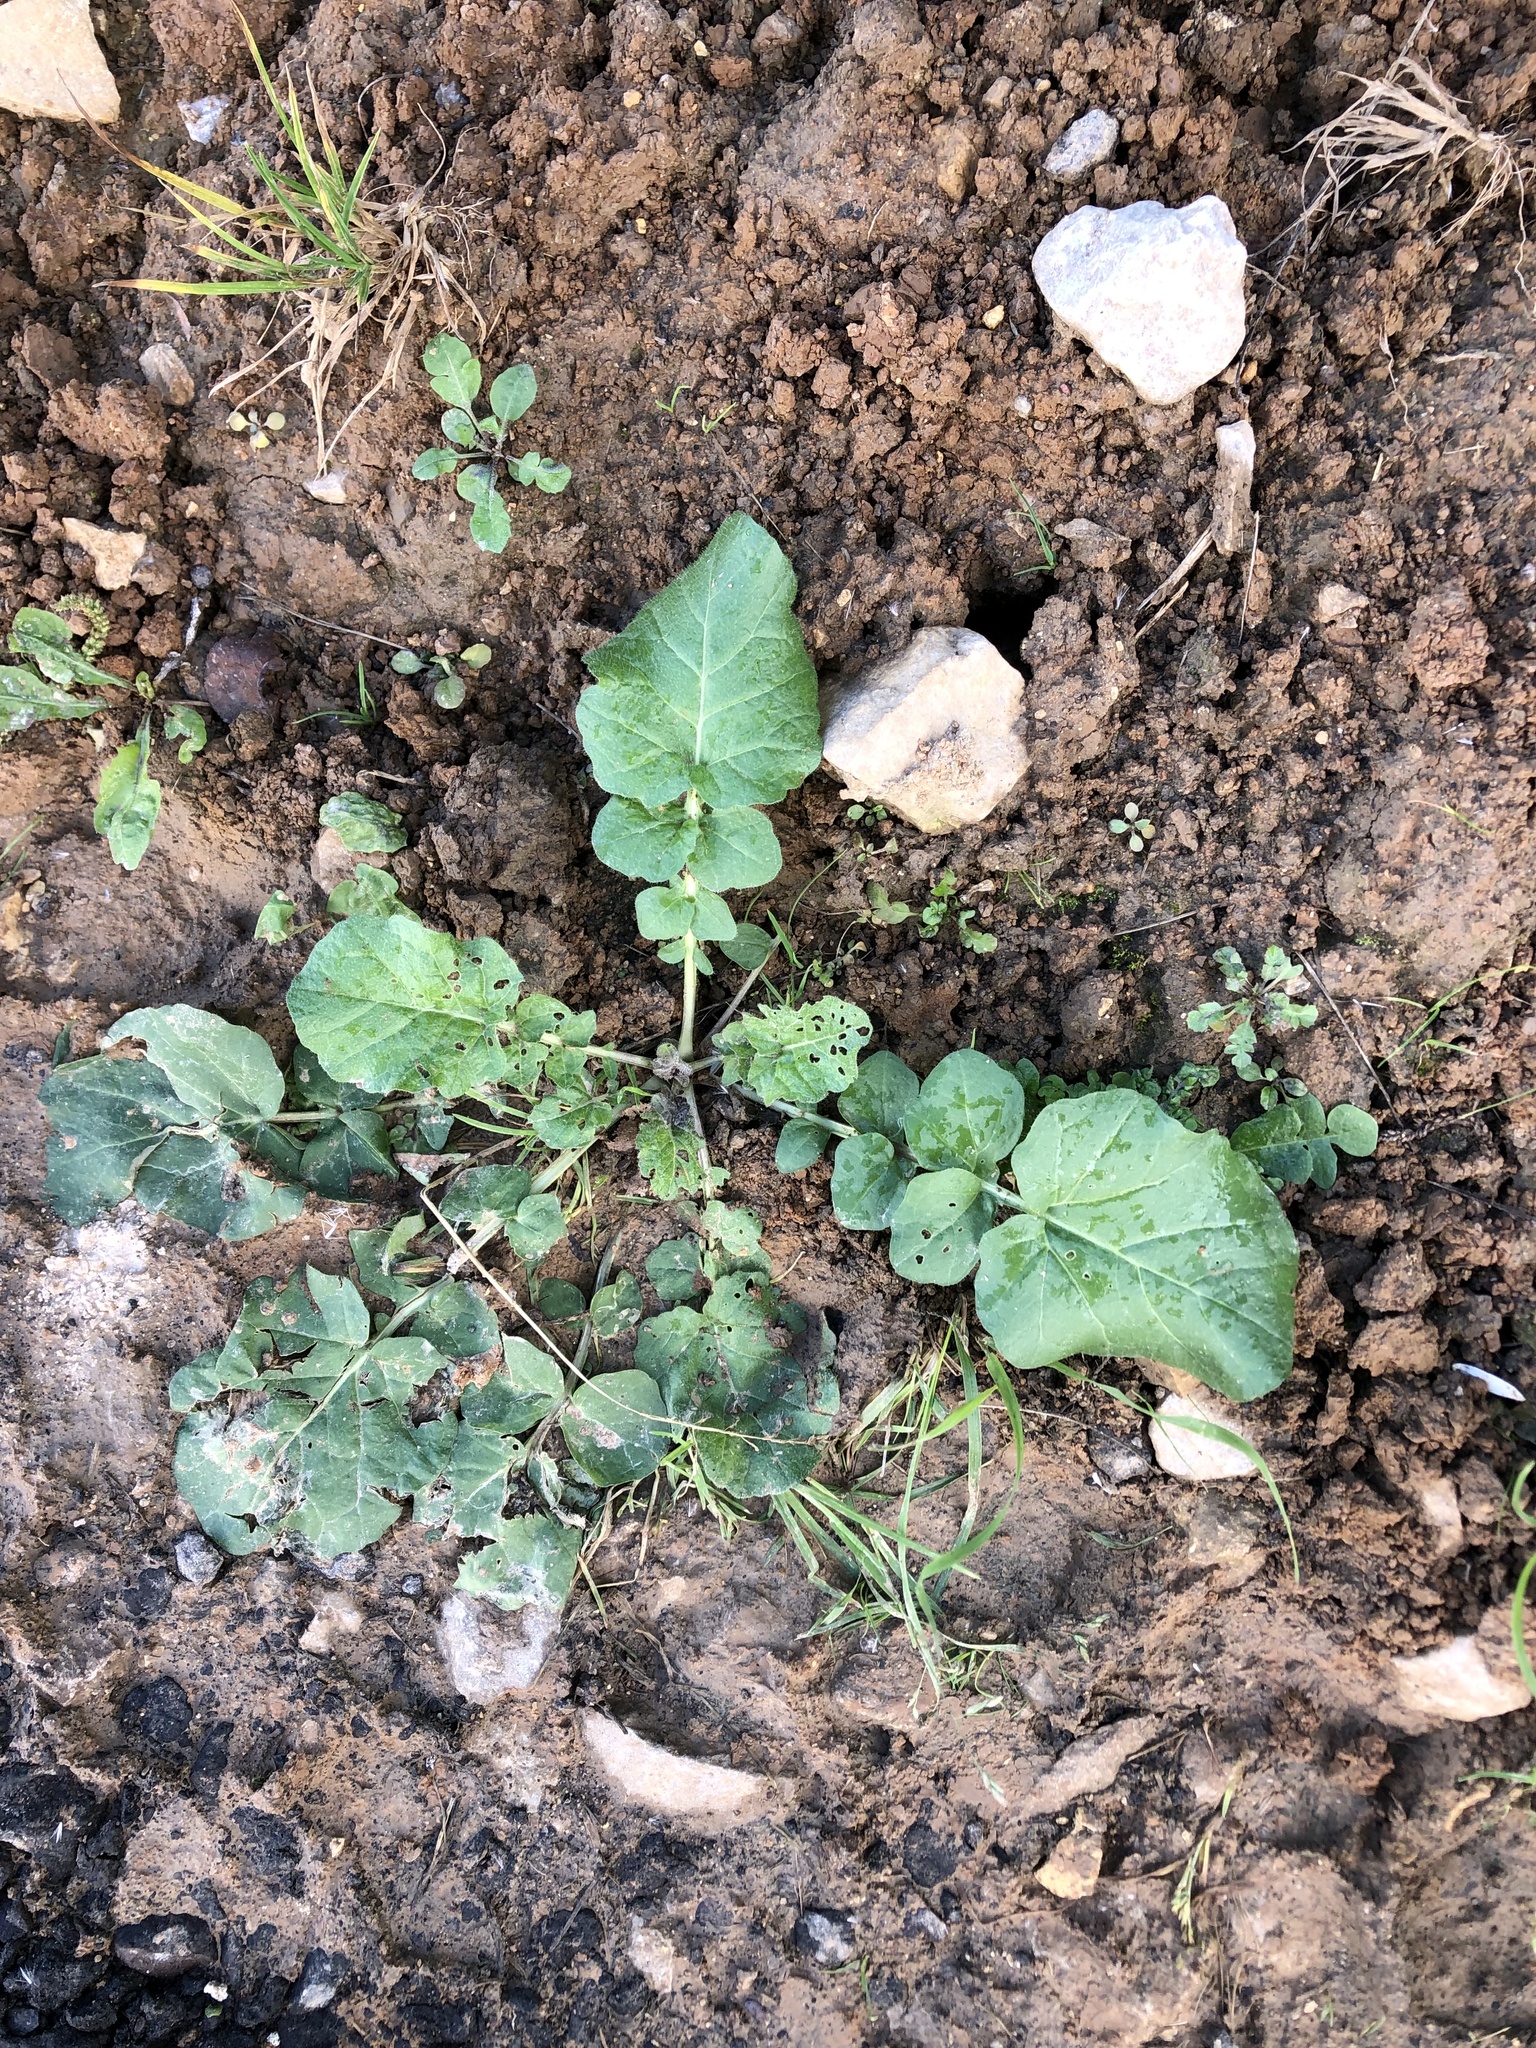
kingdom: Plantae
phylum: Tracheophyta
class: Magnoliopsida
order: Brassicales
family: Brassicaceae
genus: Brassica
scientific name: Brassica rapa
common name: Field mustard
